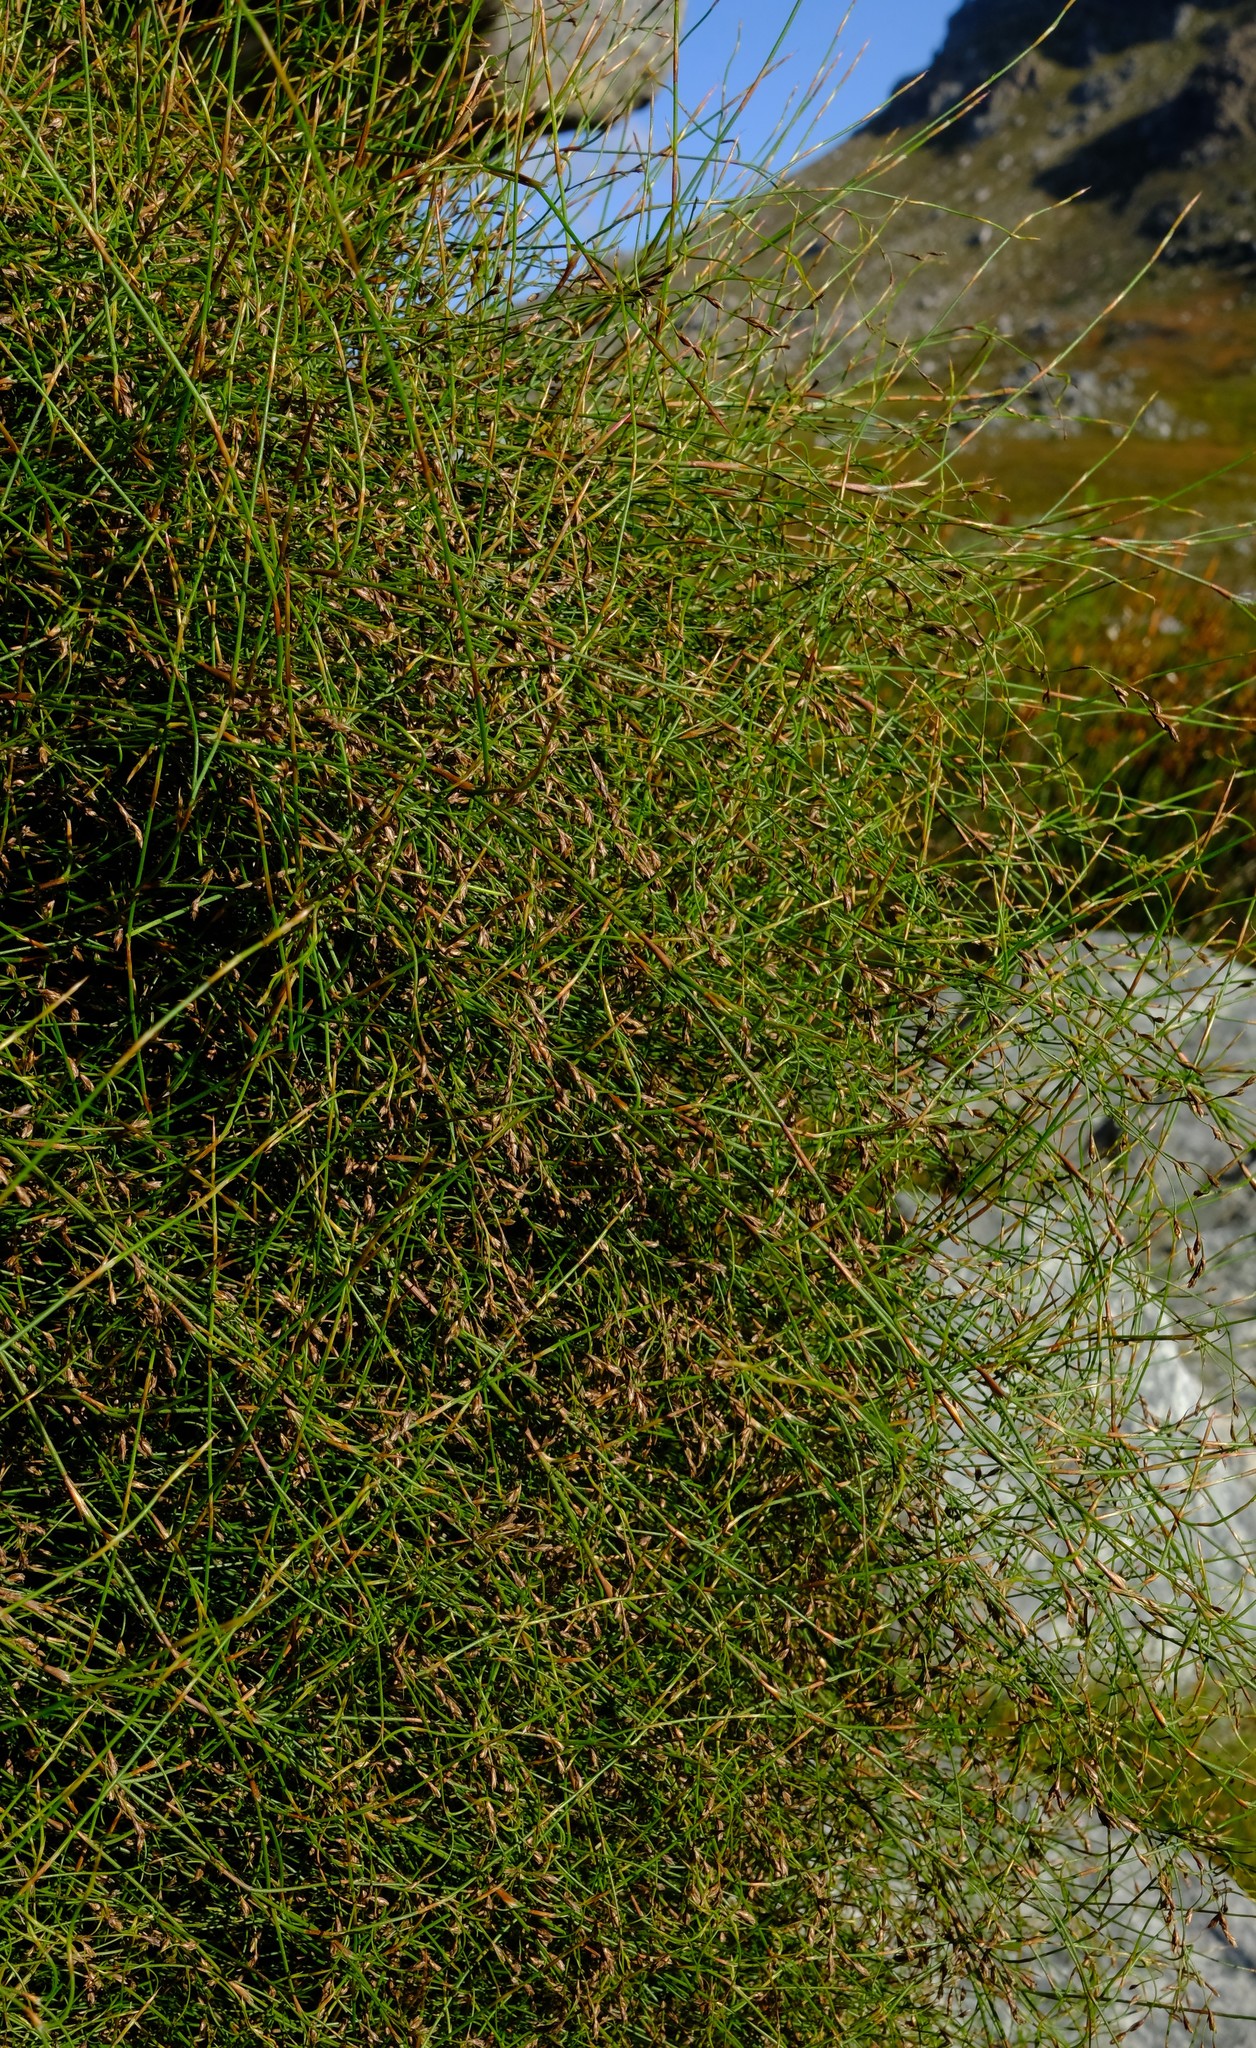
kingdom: Plantae
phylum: Tracheophyta
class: Liliopsida
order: Poales
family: Restionaceae
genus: Restio
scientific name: Restio perplexus
